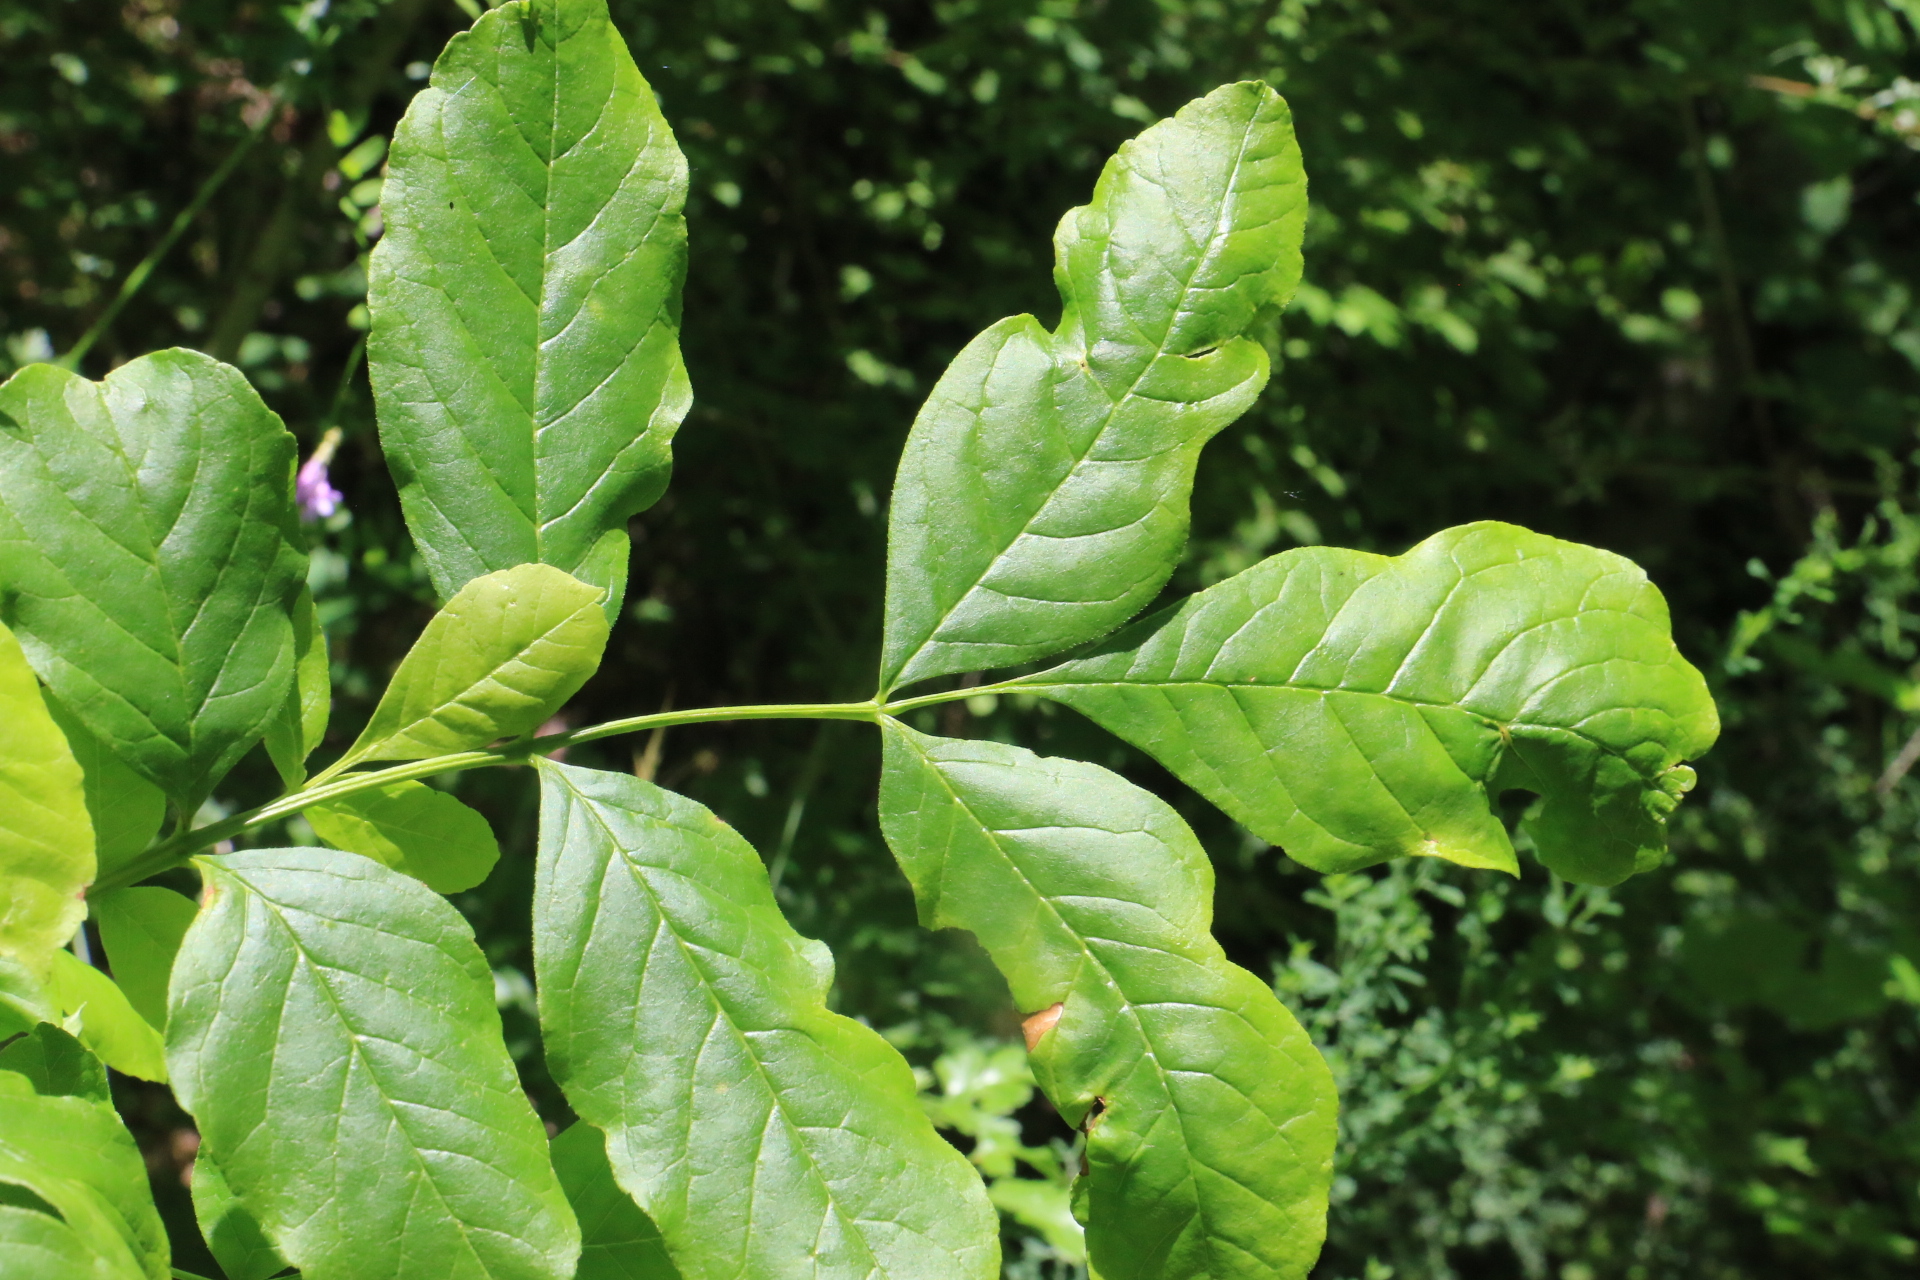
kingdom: Plantae
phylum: Tracheophyta
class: Magnoliopsida
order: Lamiales
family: Oleaceae
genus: Fraxinus
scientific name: Fraxinus latifolia
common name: Oregon ash
